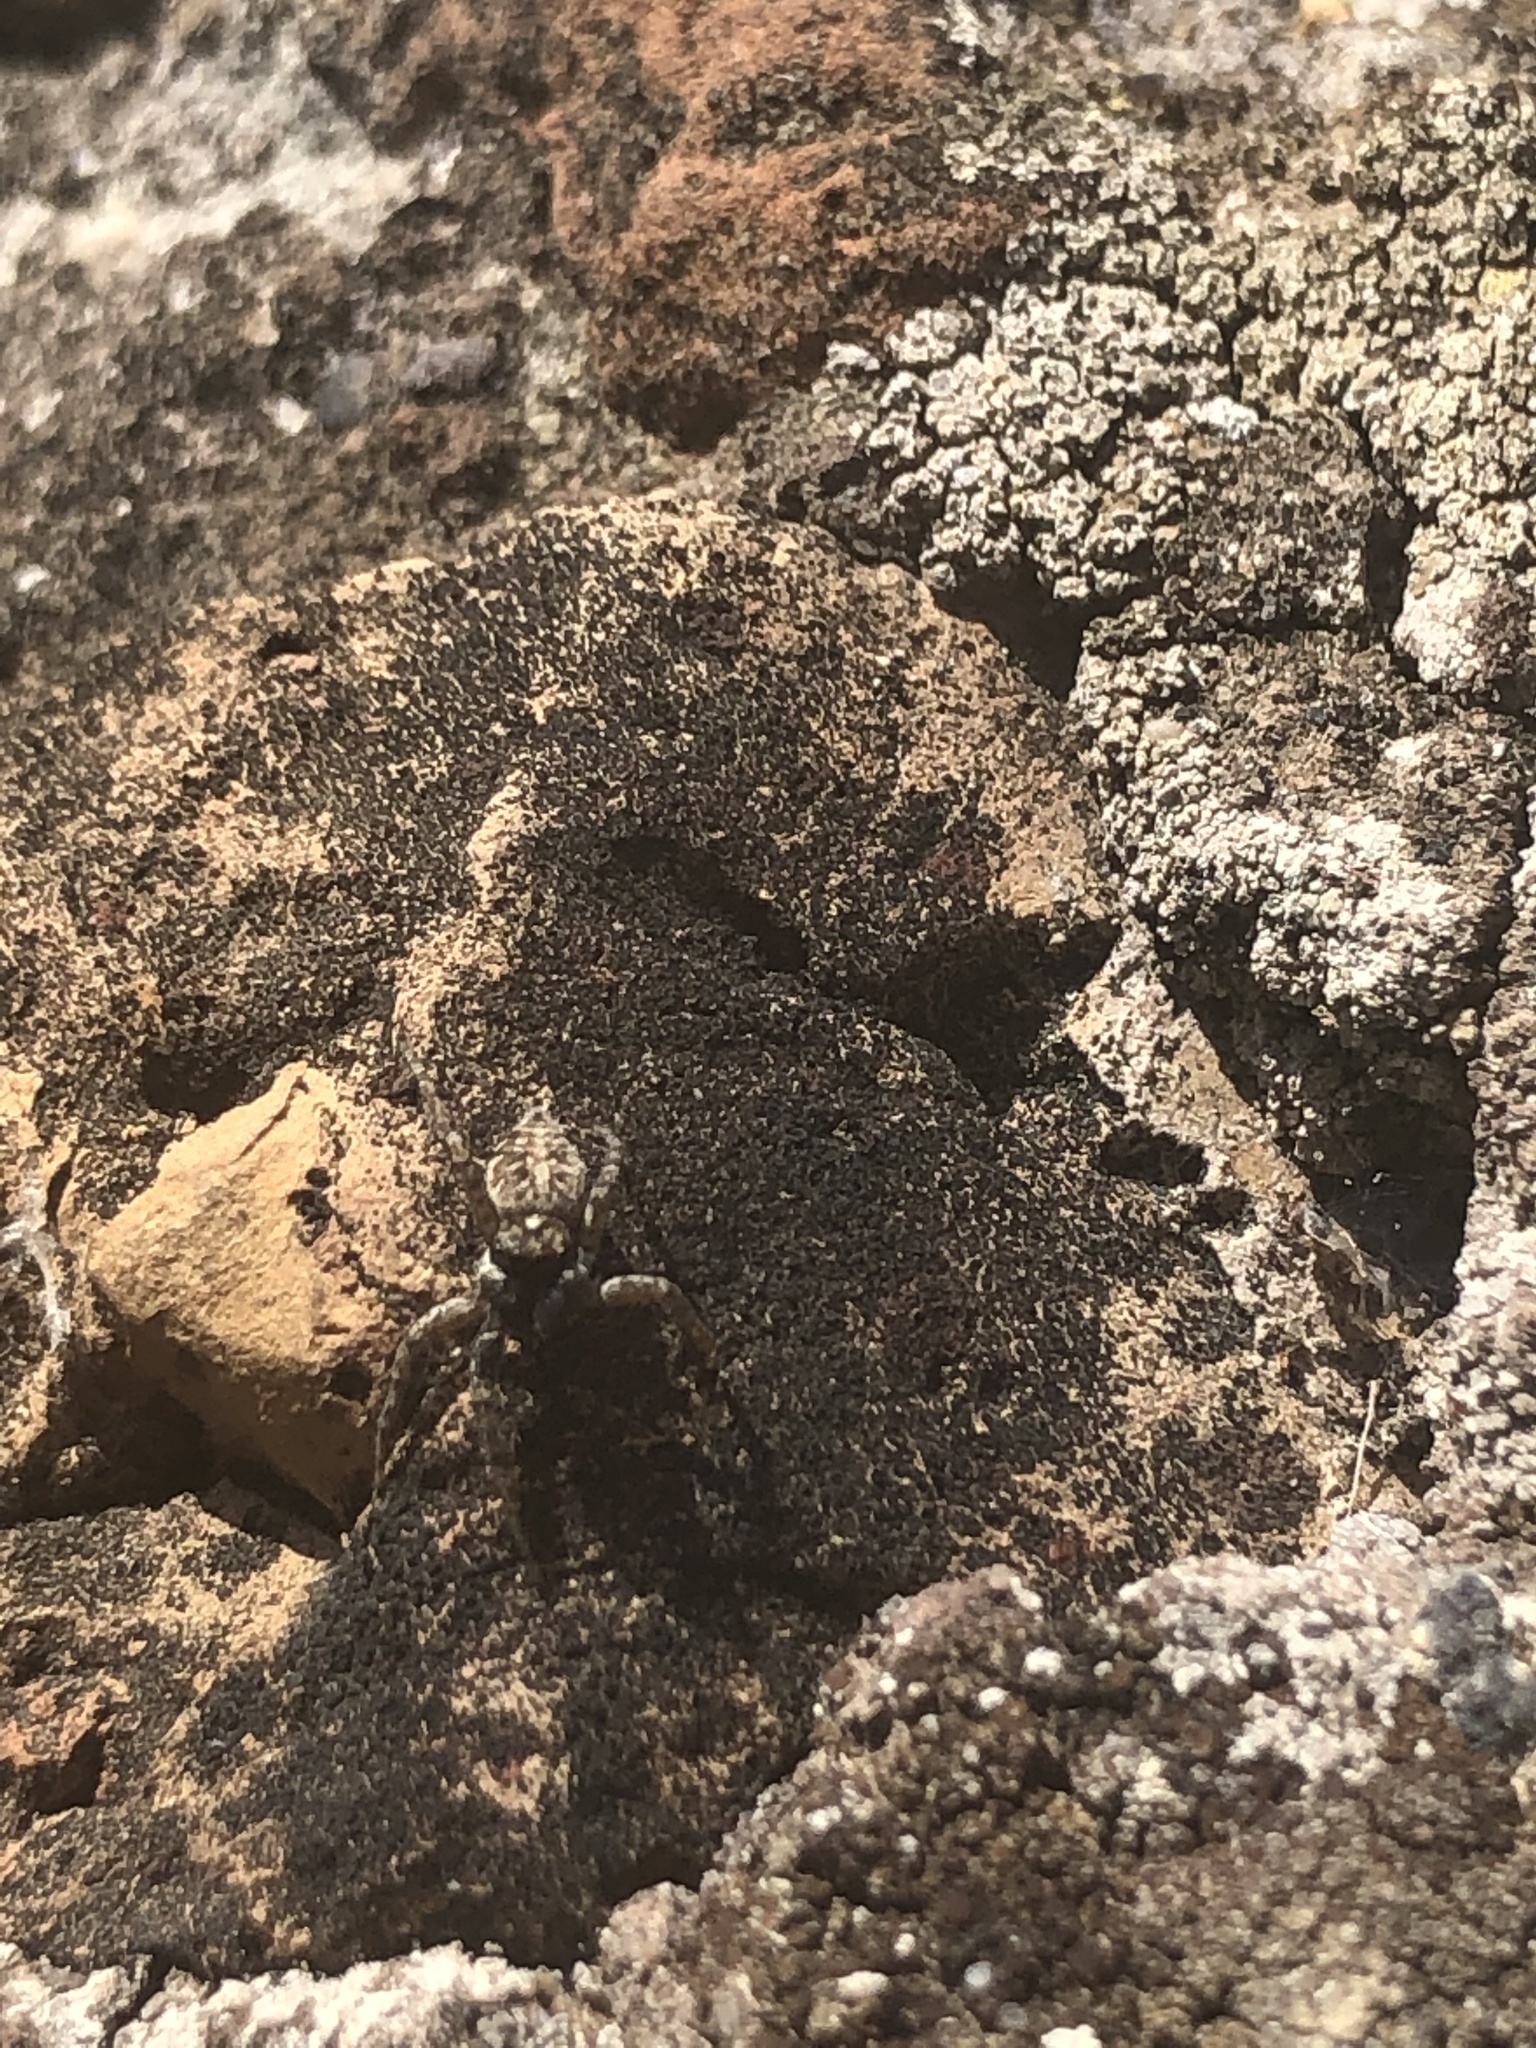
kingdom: Animalia
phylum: Arthropoda
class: Arachnida
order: Araneae
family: Salticidae
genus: Menemerus
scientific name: Menemerus semilimbatus
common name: Jumping spider
